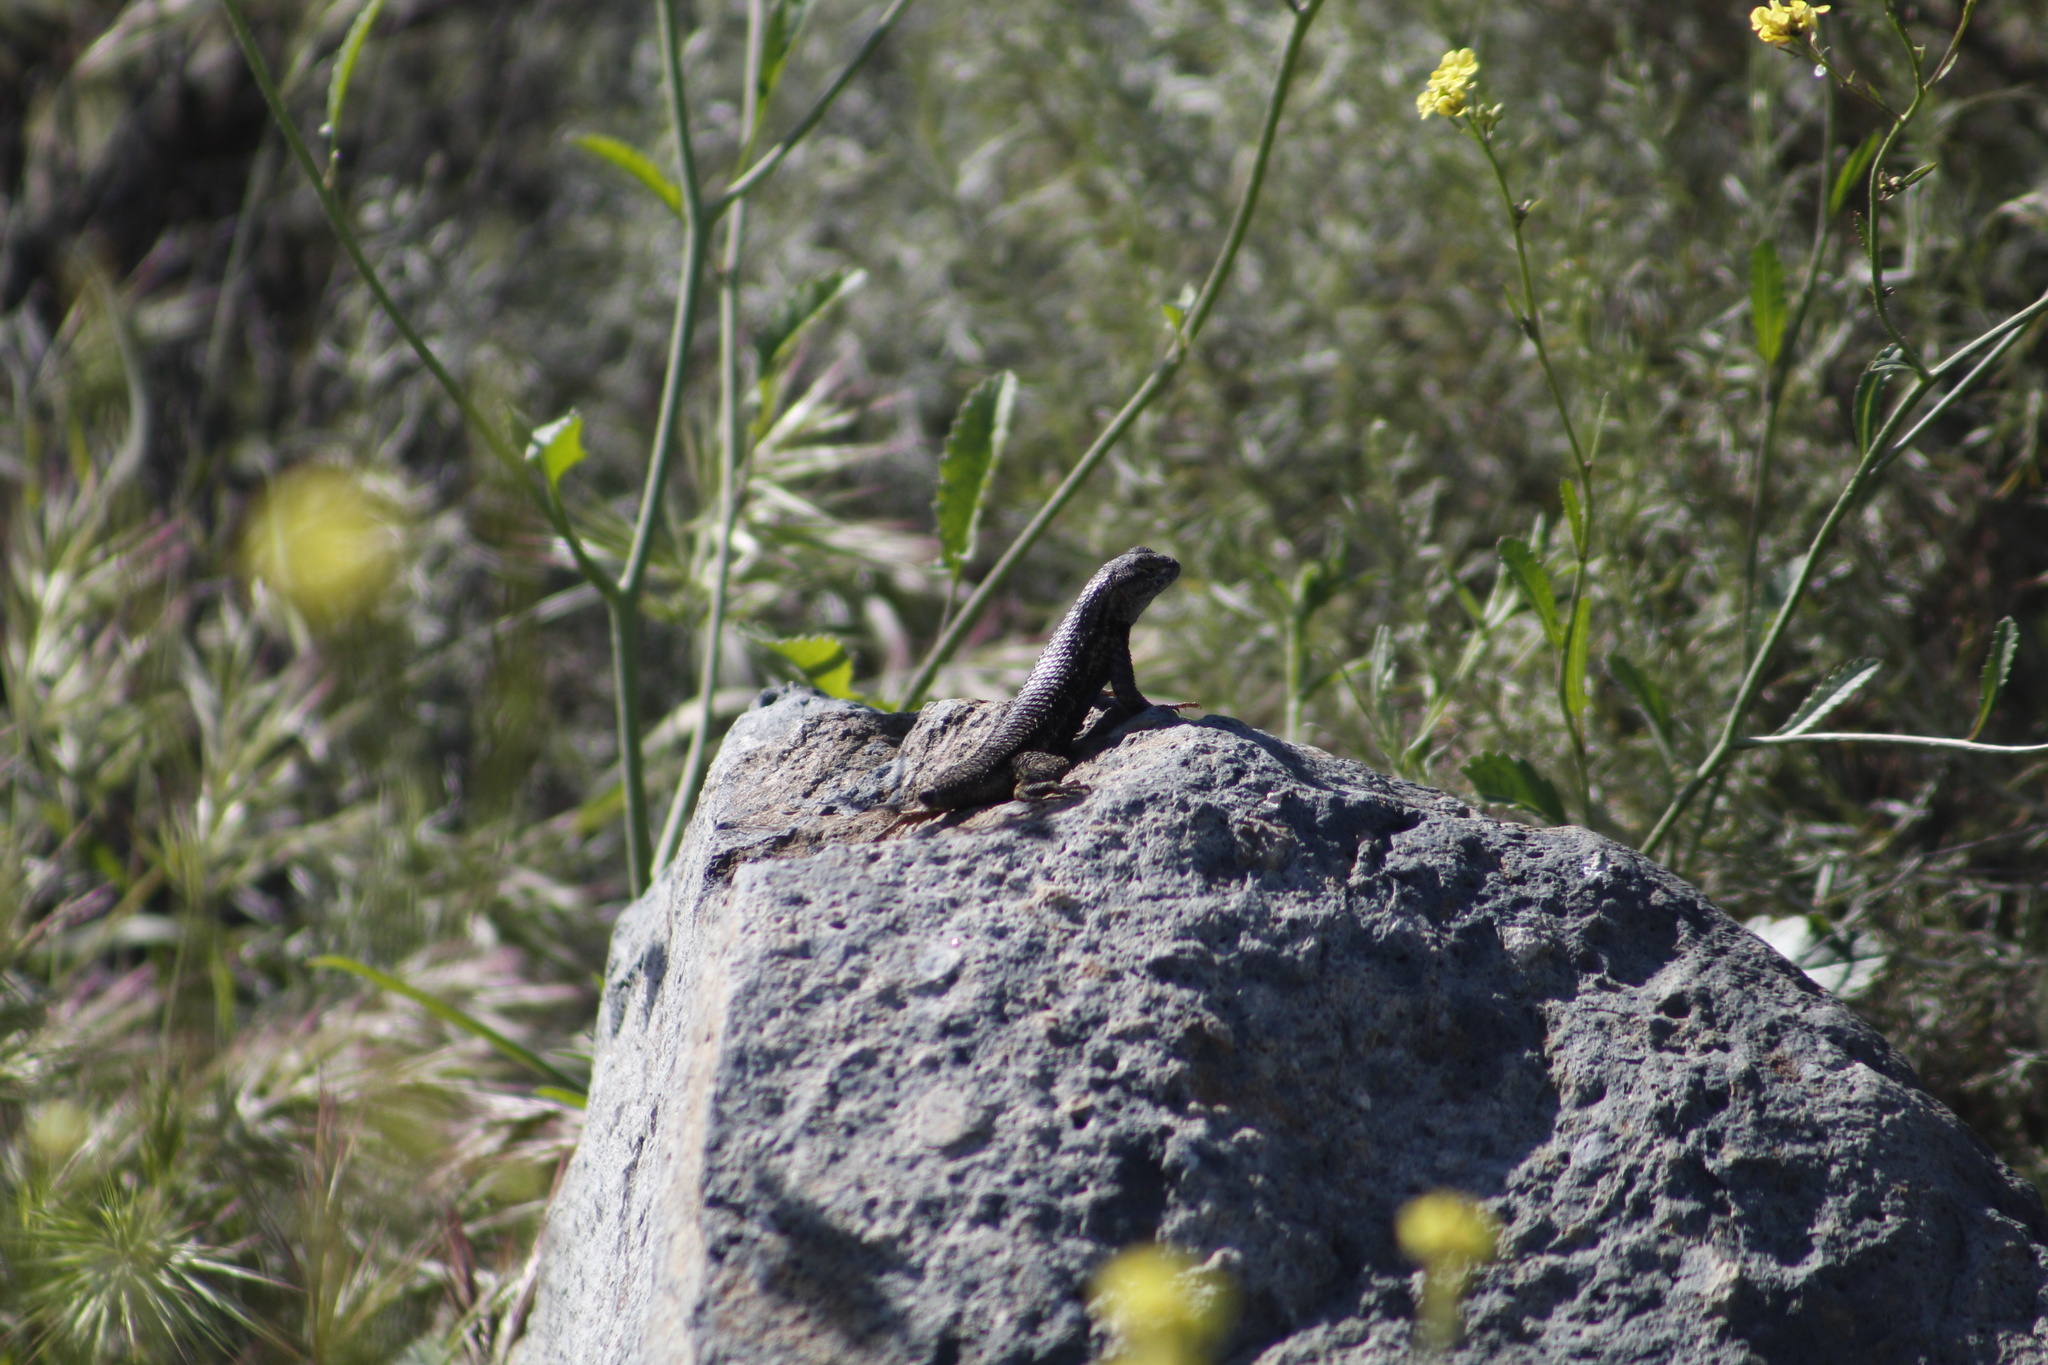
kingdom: Animalia
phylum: Chordata
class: Squamata
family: Phrynosomatidae
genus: Sceloporus
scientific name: Sceloporus occidentalis
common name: Western fence lizard
